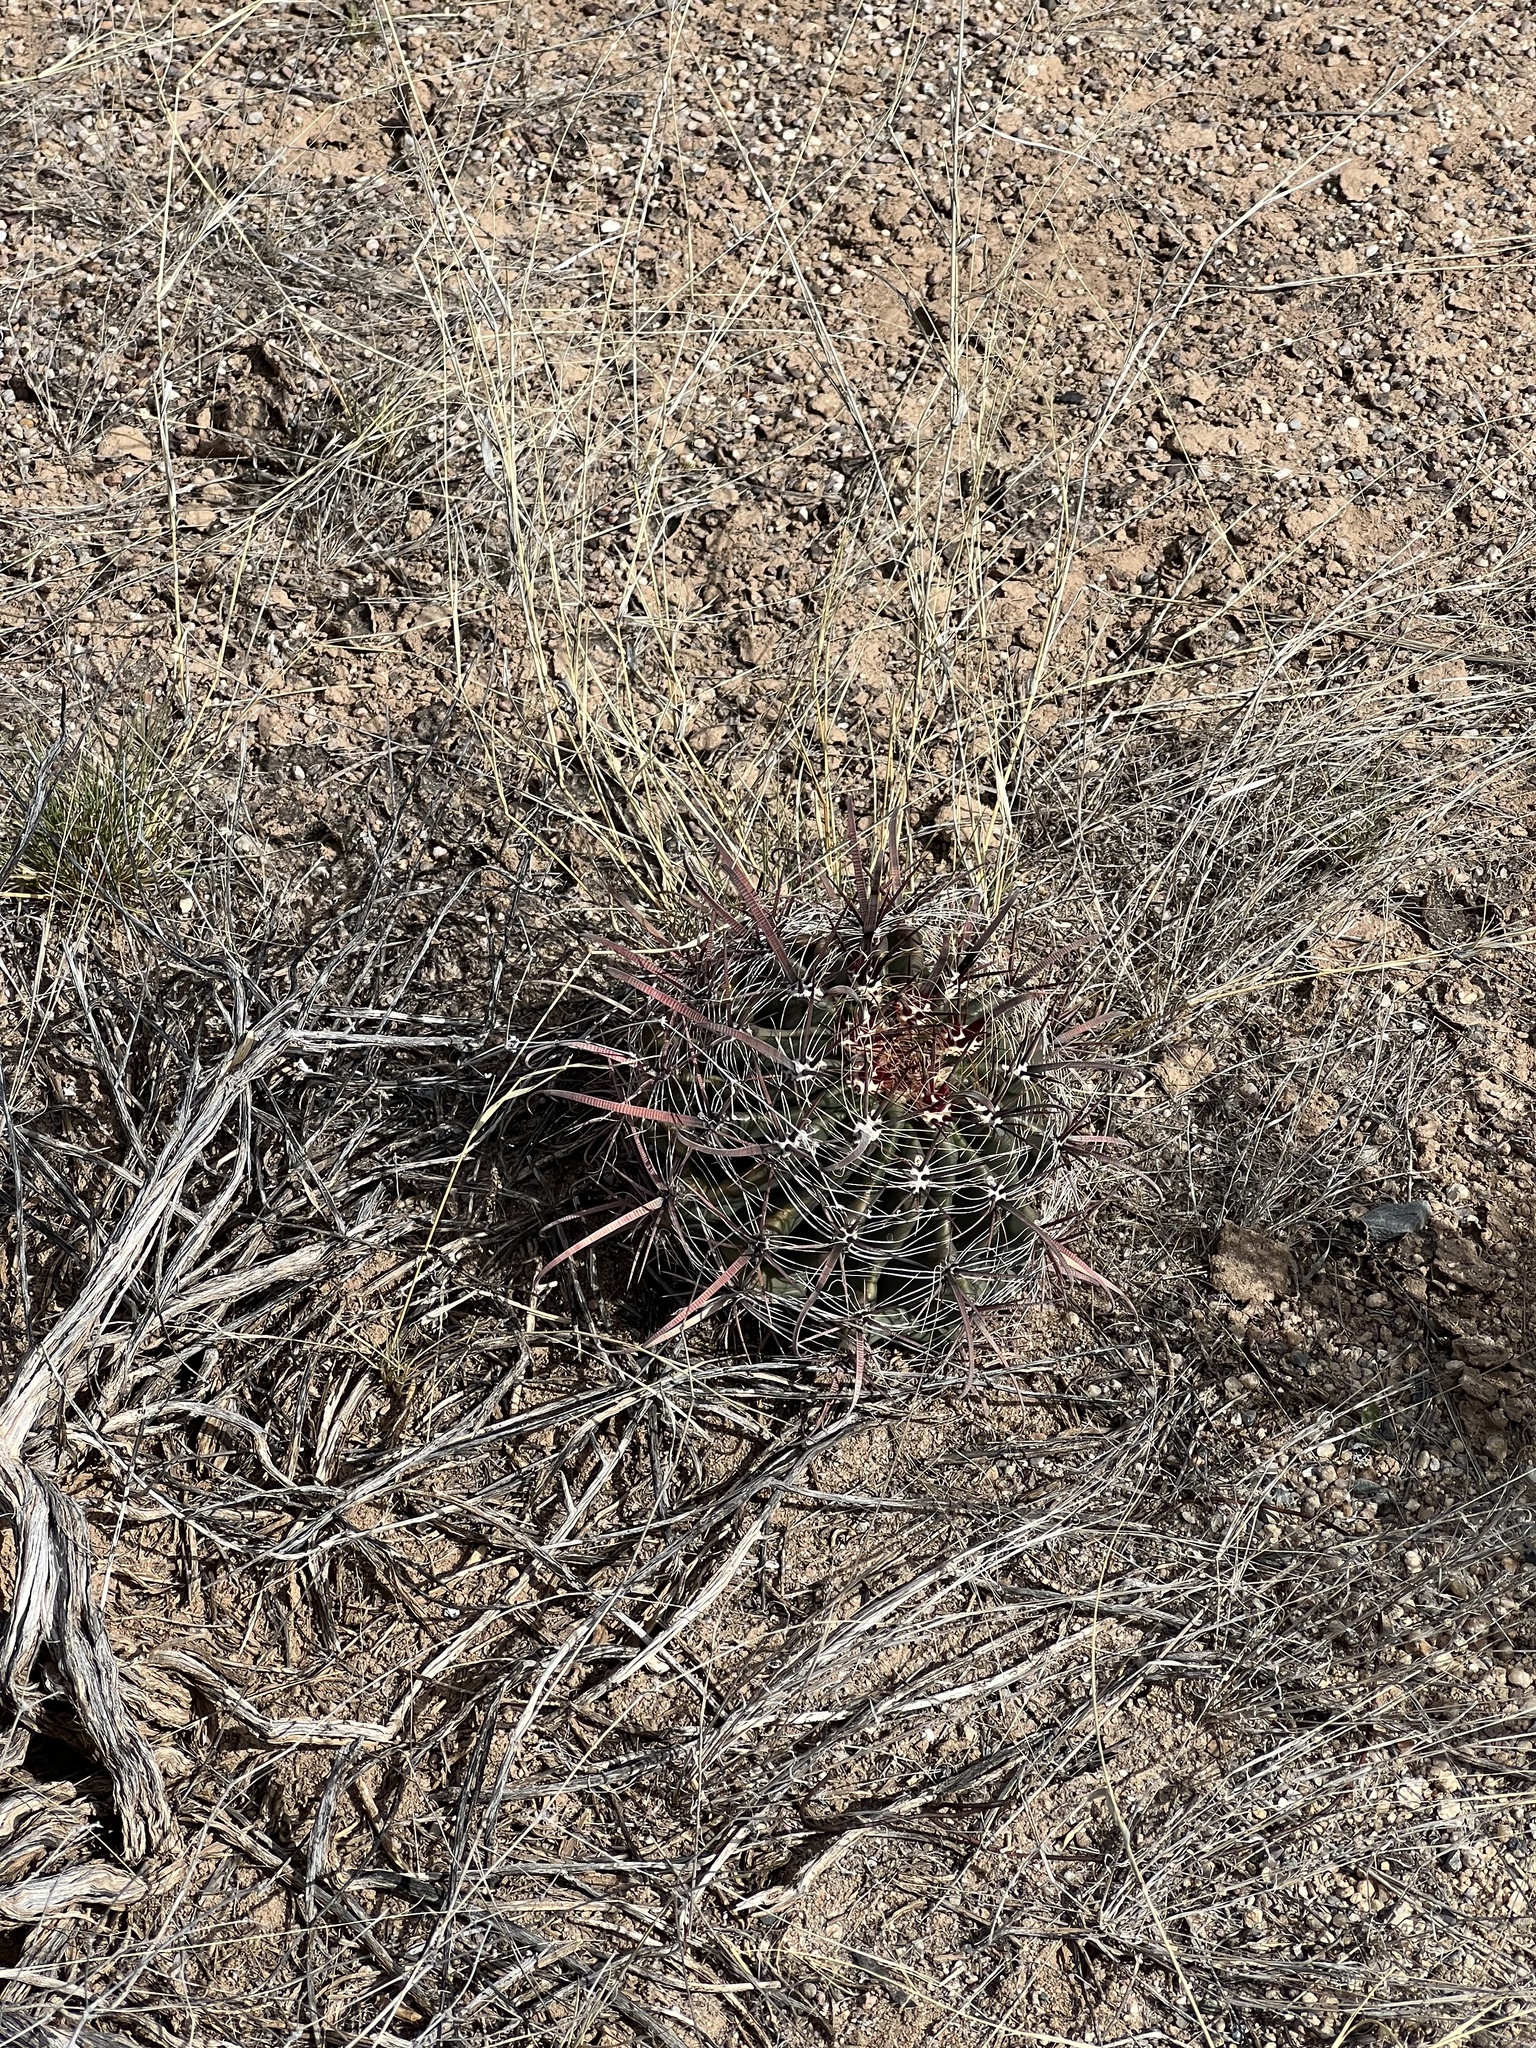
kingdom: Plantae
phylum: Tracheophyta
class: Magnoliopsida
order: Caryophyllales
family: Cactaceae
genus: Ferocactus
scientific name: Ferocactus wislizeni
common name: Candy barrel cactus
